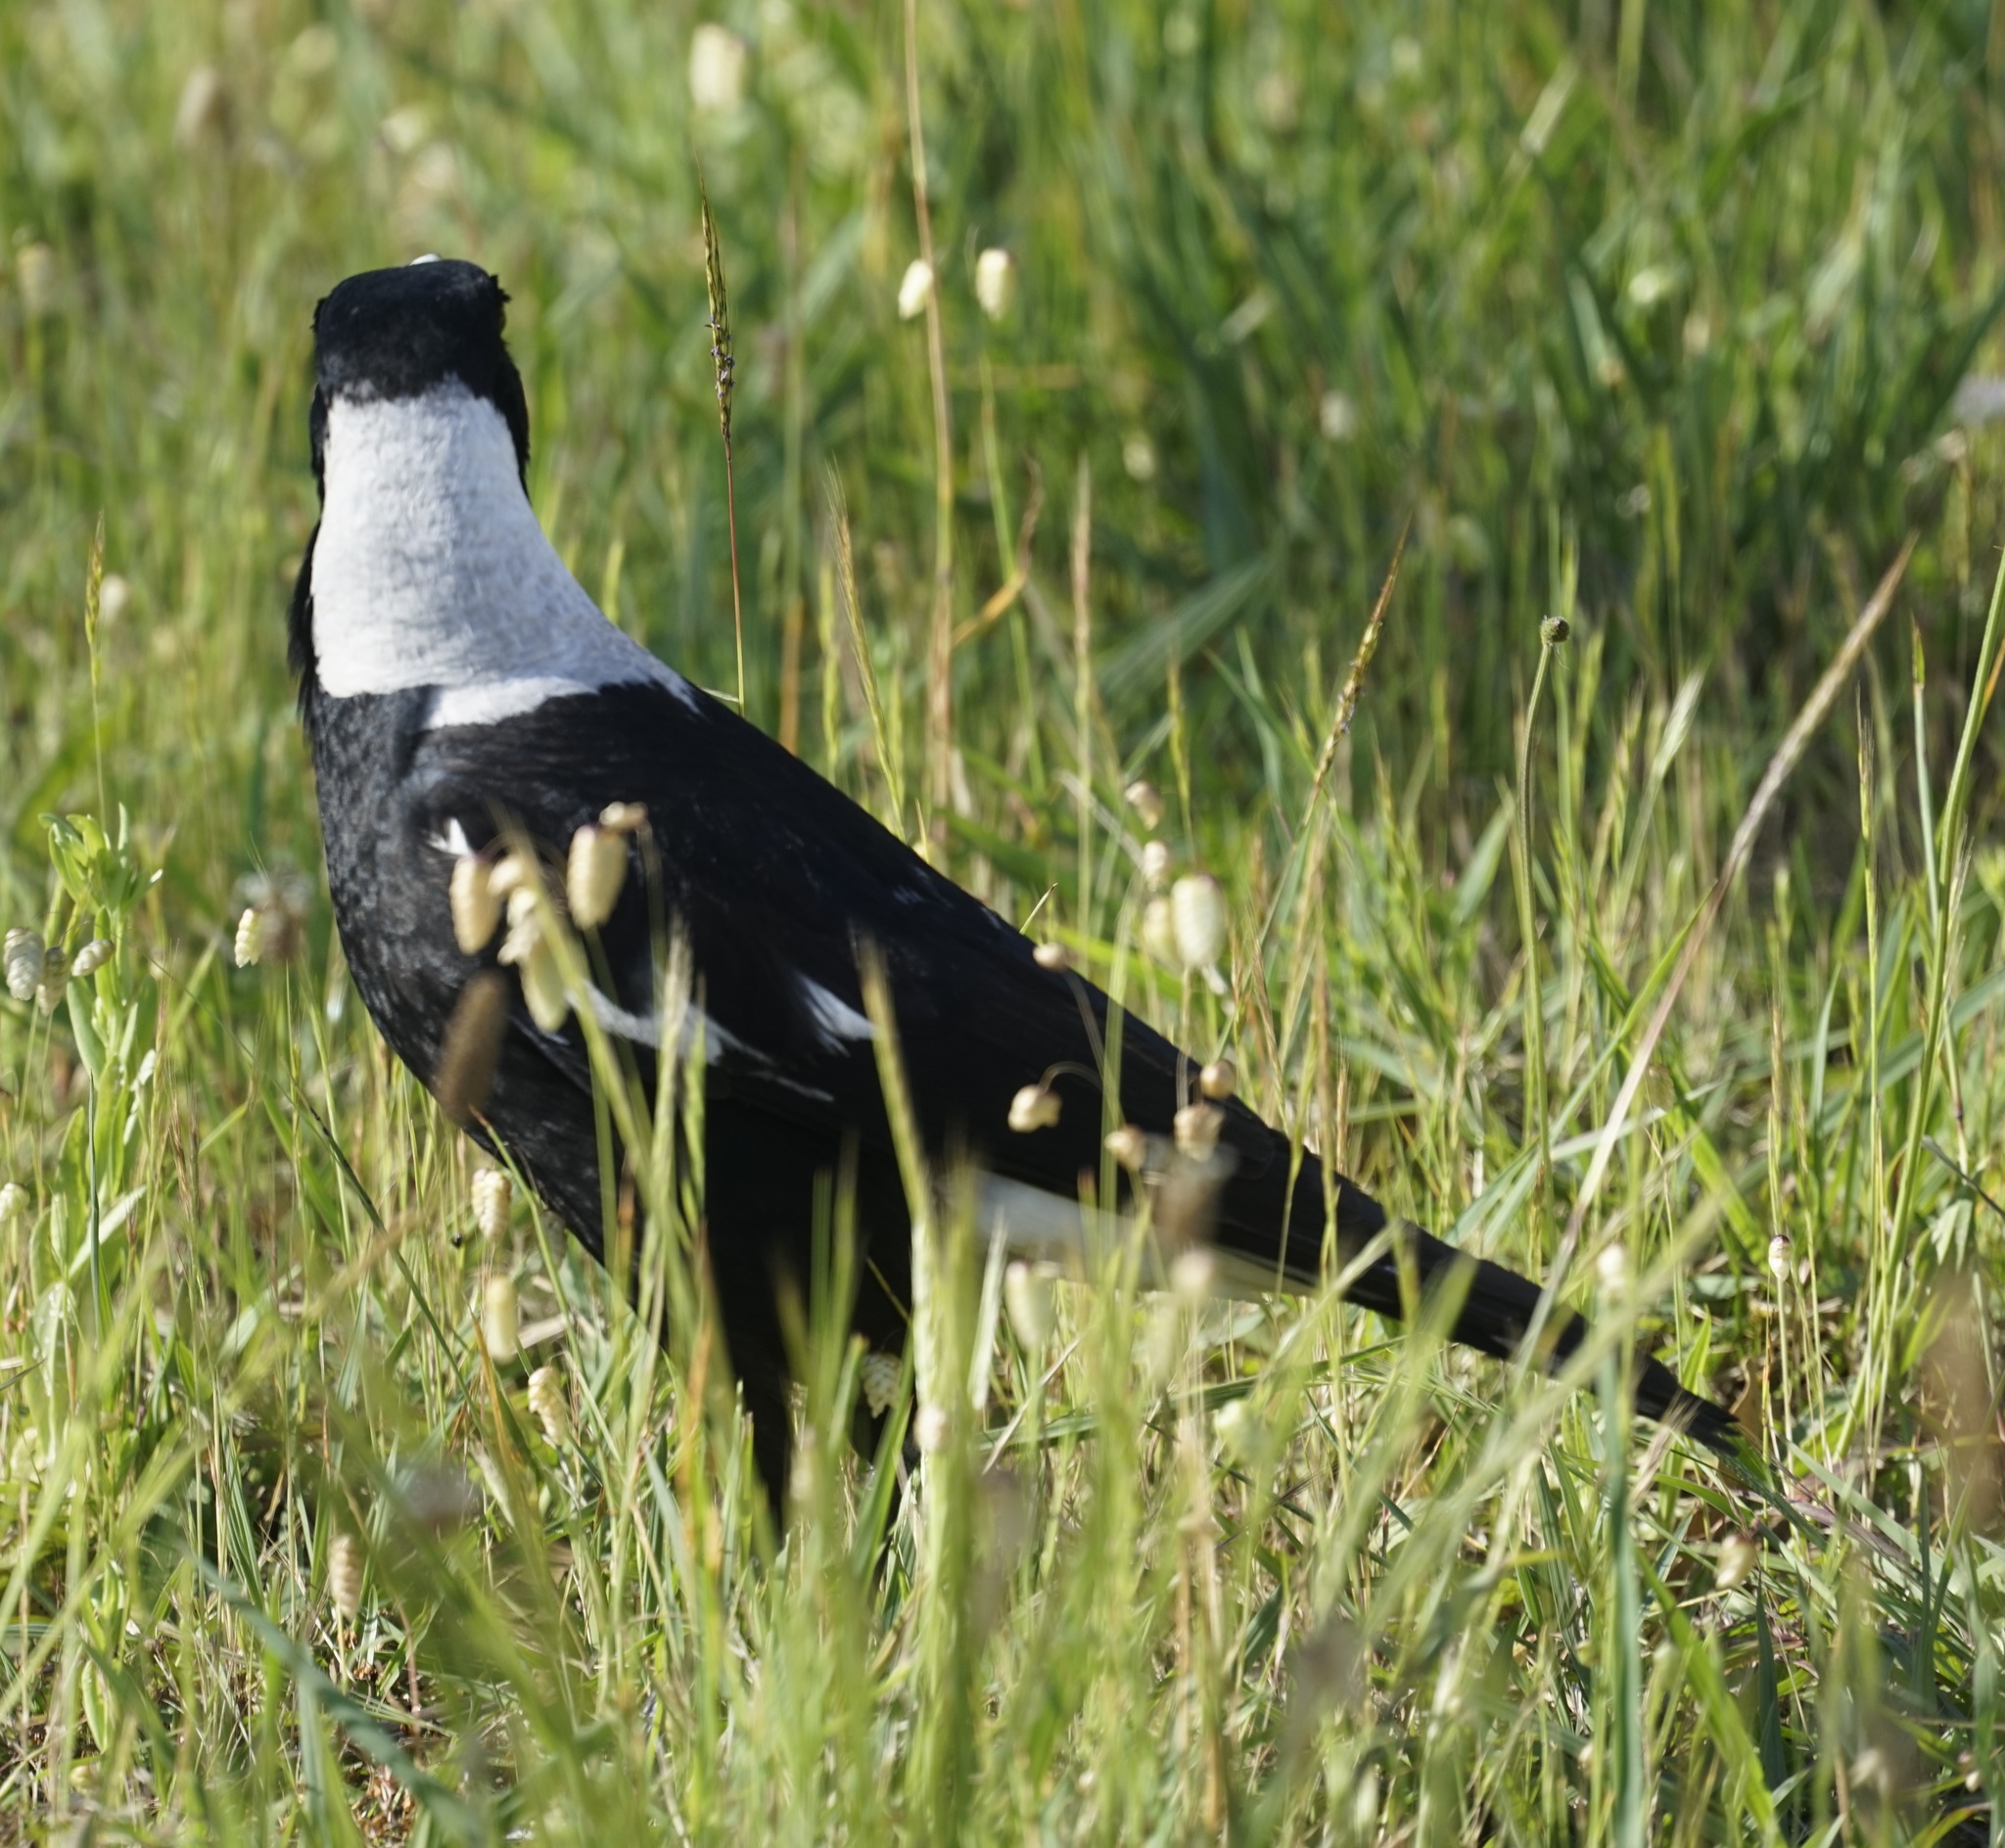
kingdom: Animalia
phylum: Chordata
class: Aves
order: Passeriformes
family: Cracticidae
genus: Gymnorhina
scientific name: Gymnorhina tibicen
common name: Australian magpie
